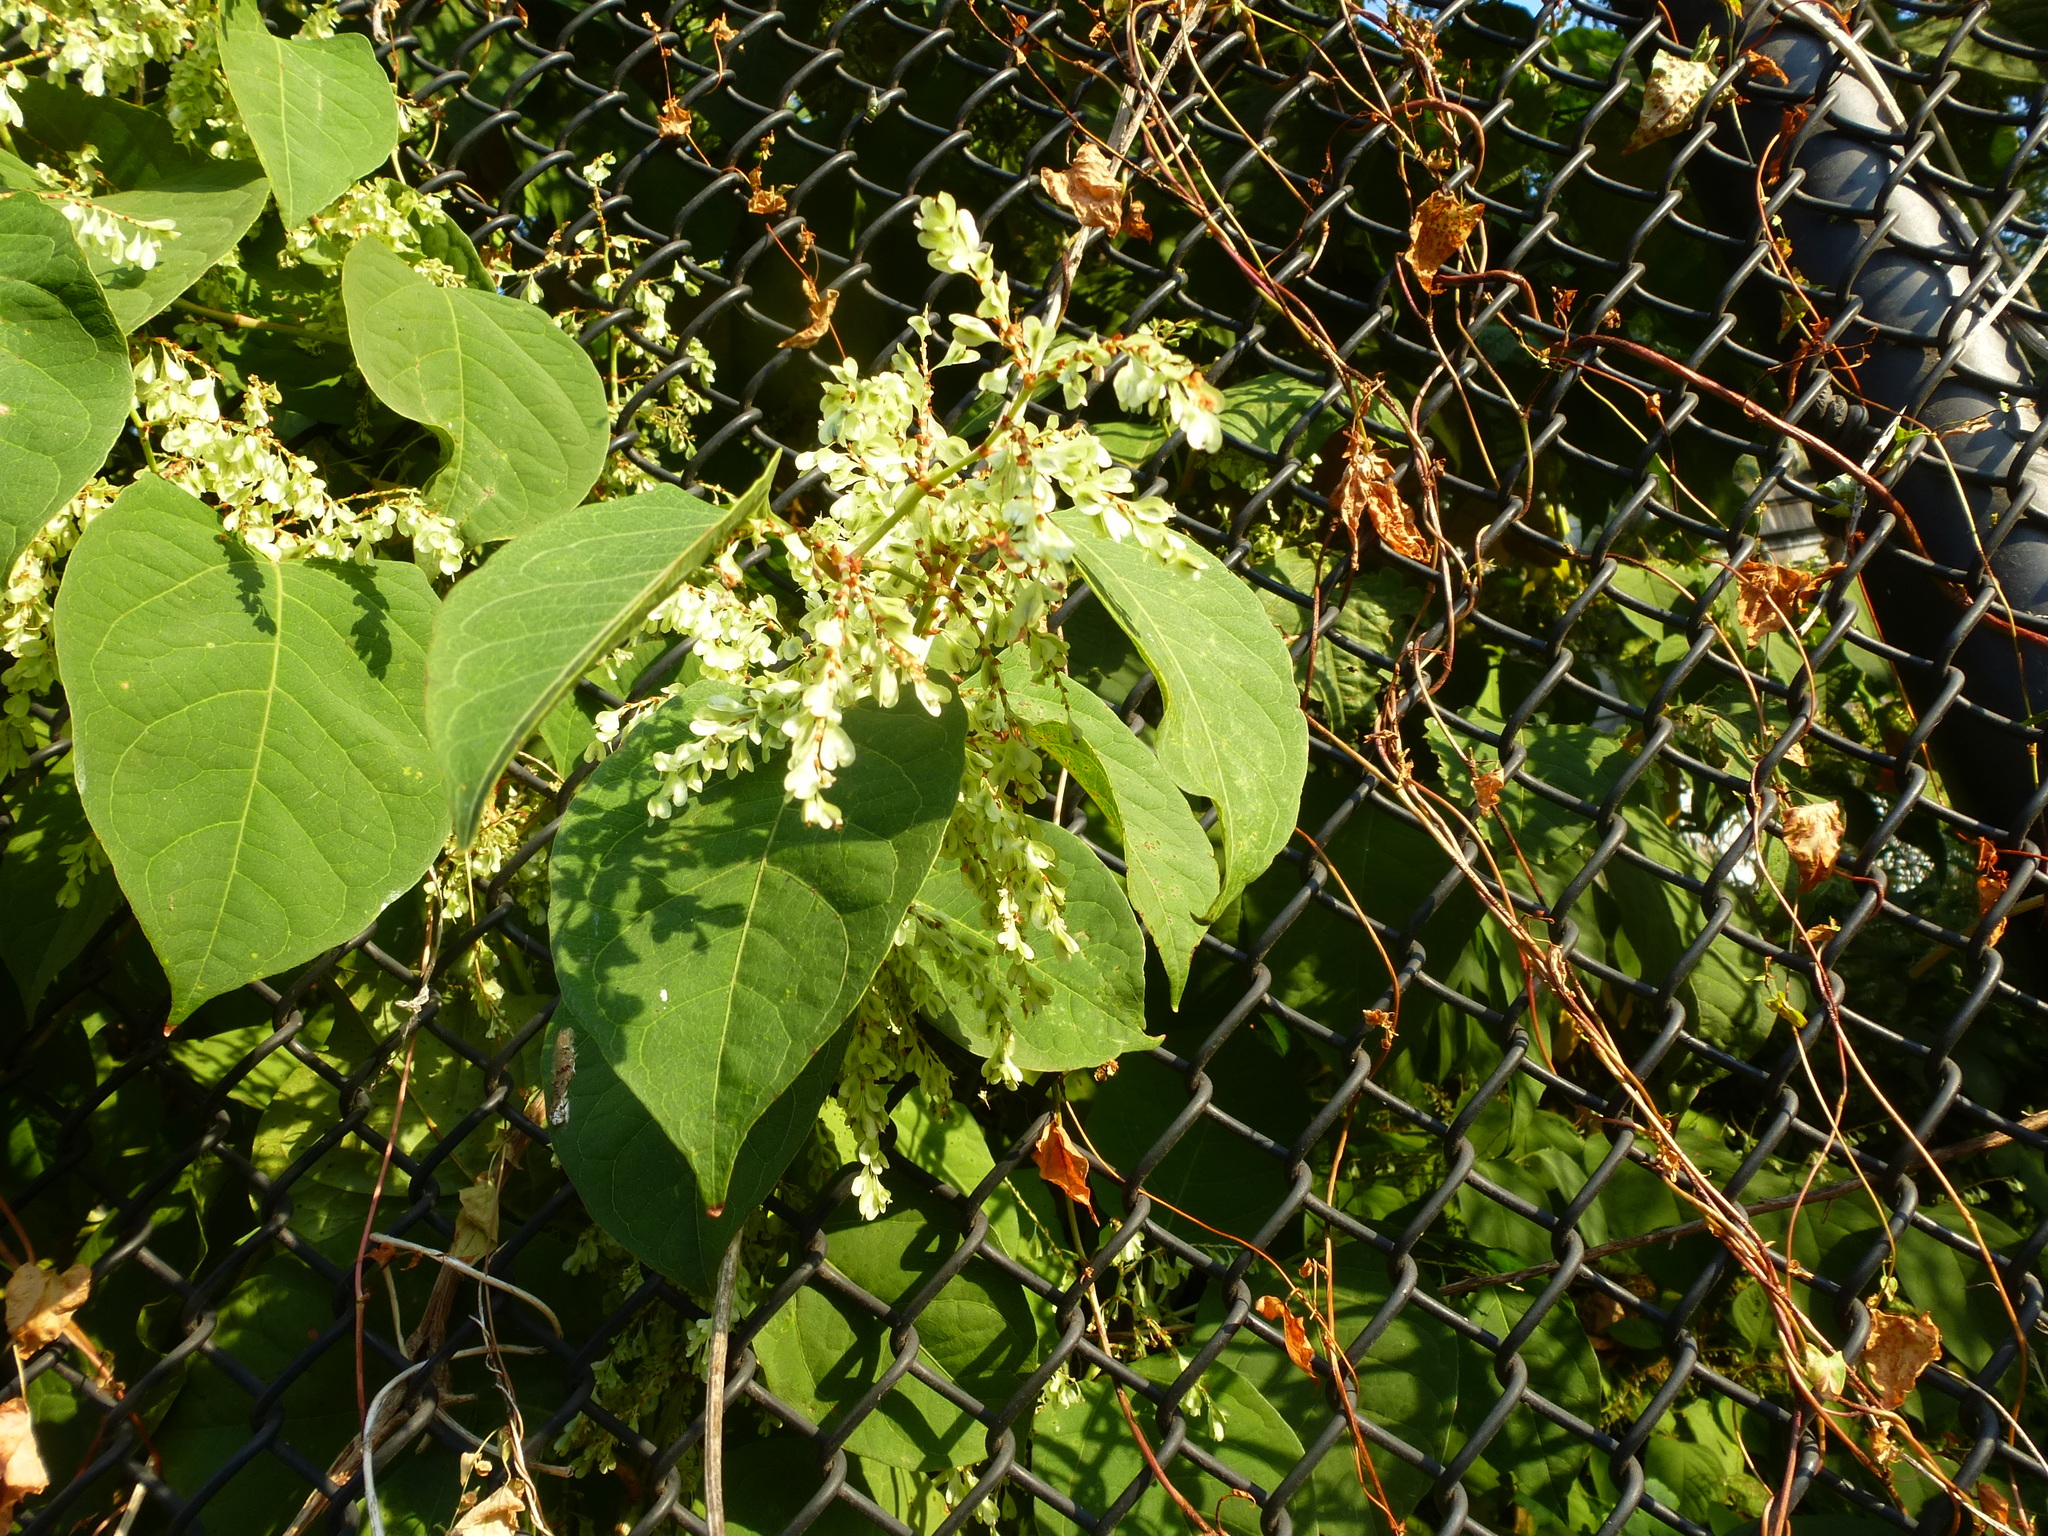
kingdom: Plantae
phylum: Tracheophyta
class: Magnoliopsida
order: Caryophyllales
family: Polygonaceae
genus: Reynoutria
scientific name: Reynoutria japonica
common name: Japanese knotweed
